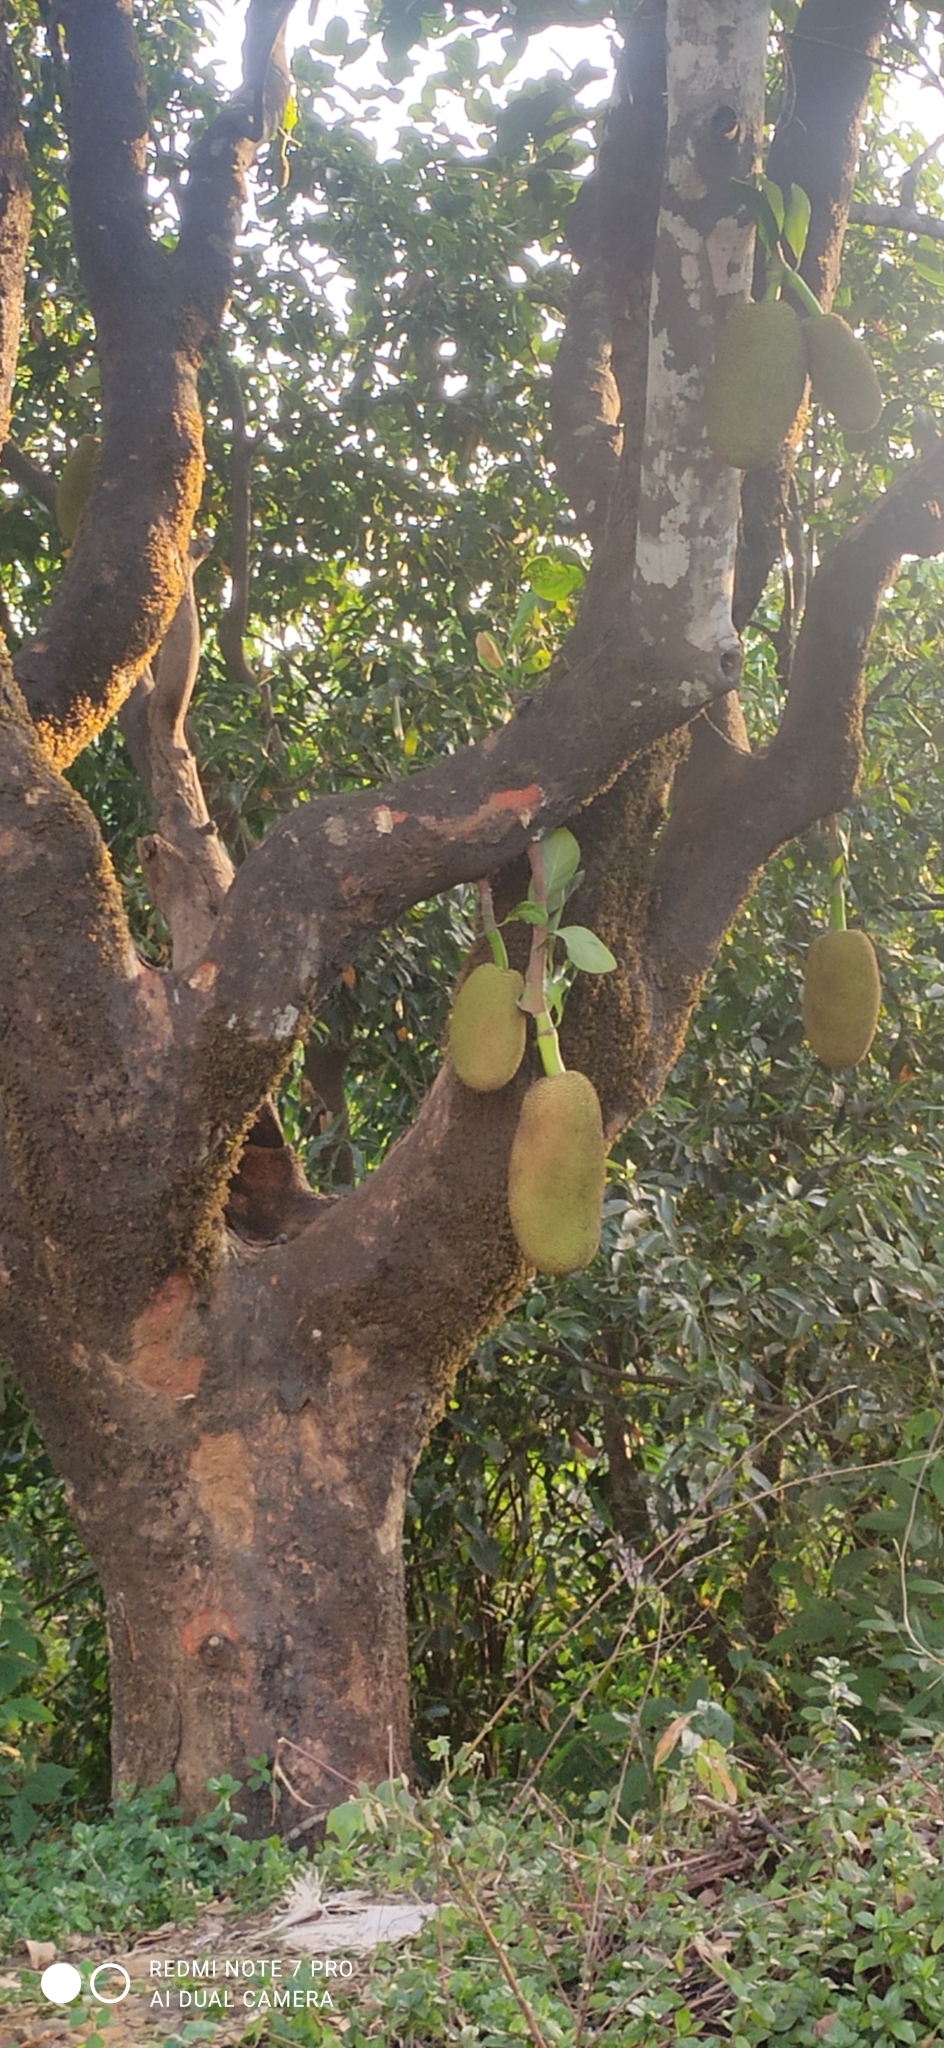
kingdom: Plantae
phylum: Tracheophyta
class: Magnoliopsida
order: Rosales
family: Moraceae
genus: Artocarpus
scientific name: Artocarpus heterophyllus
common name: Jackfruit
